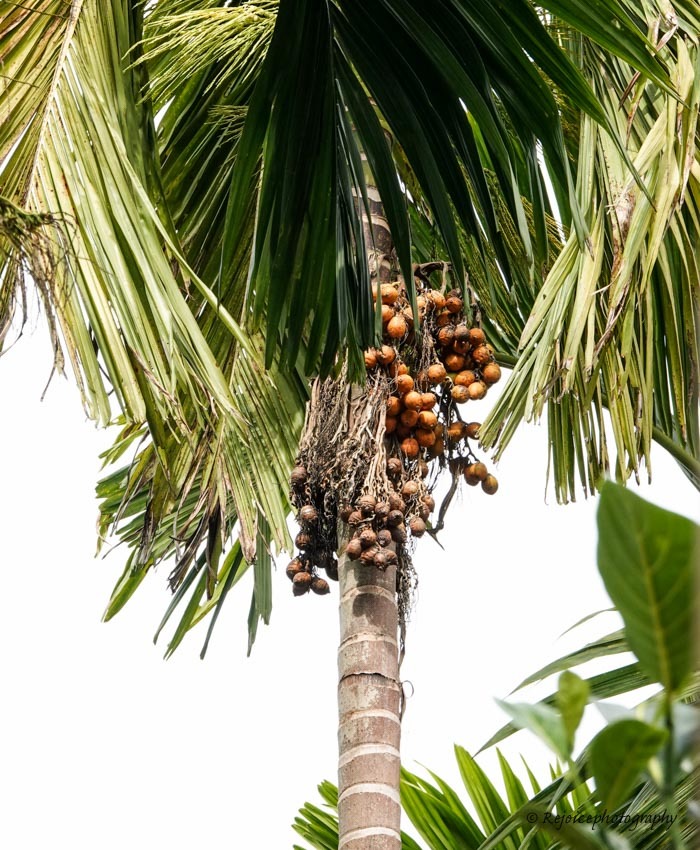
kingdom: Plantae
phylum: Tracheophyta
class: Liliopsida
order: Arecales
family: Arecaceae
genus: Areca
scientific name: Areca catechu
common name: Indian-nut
